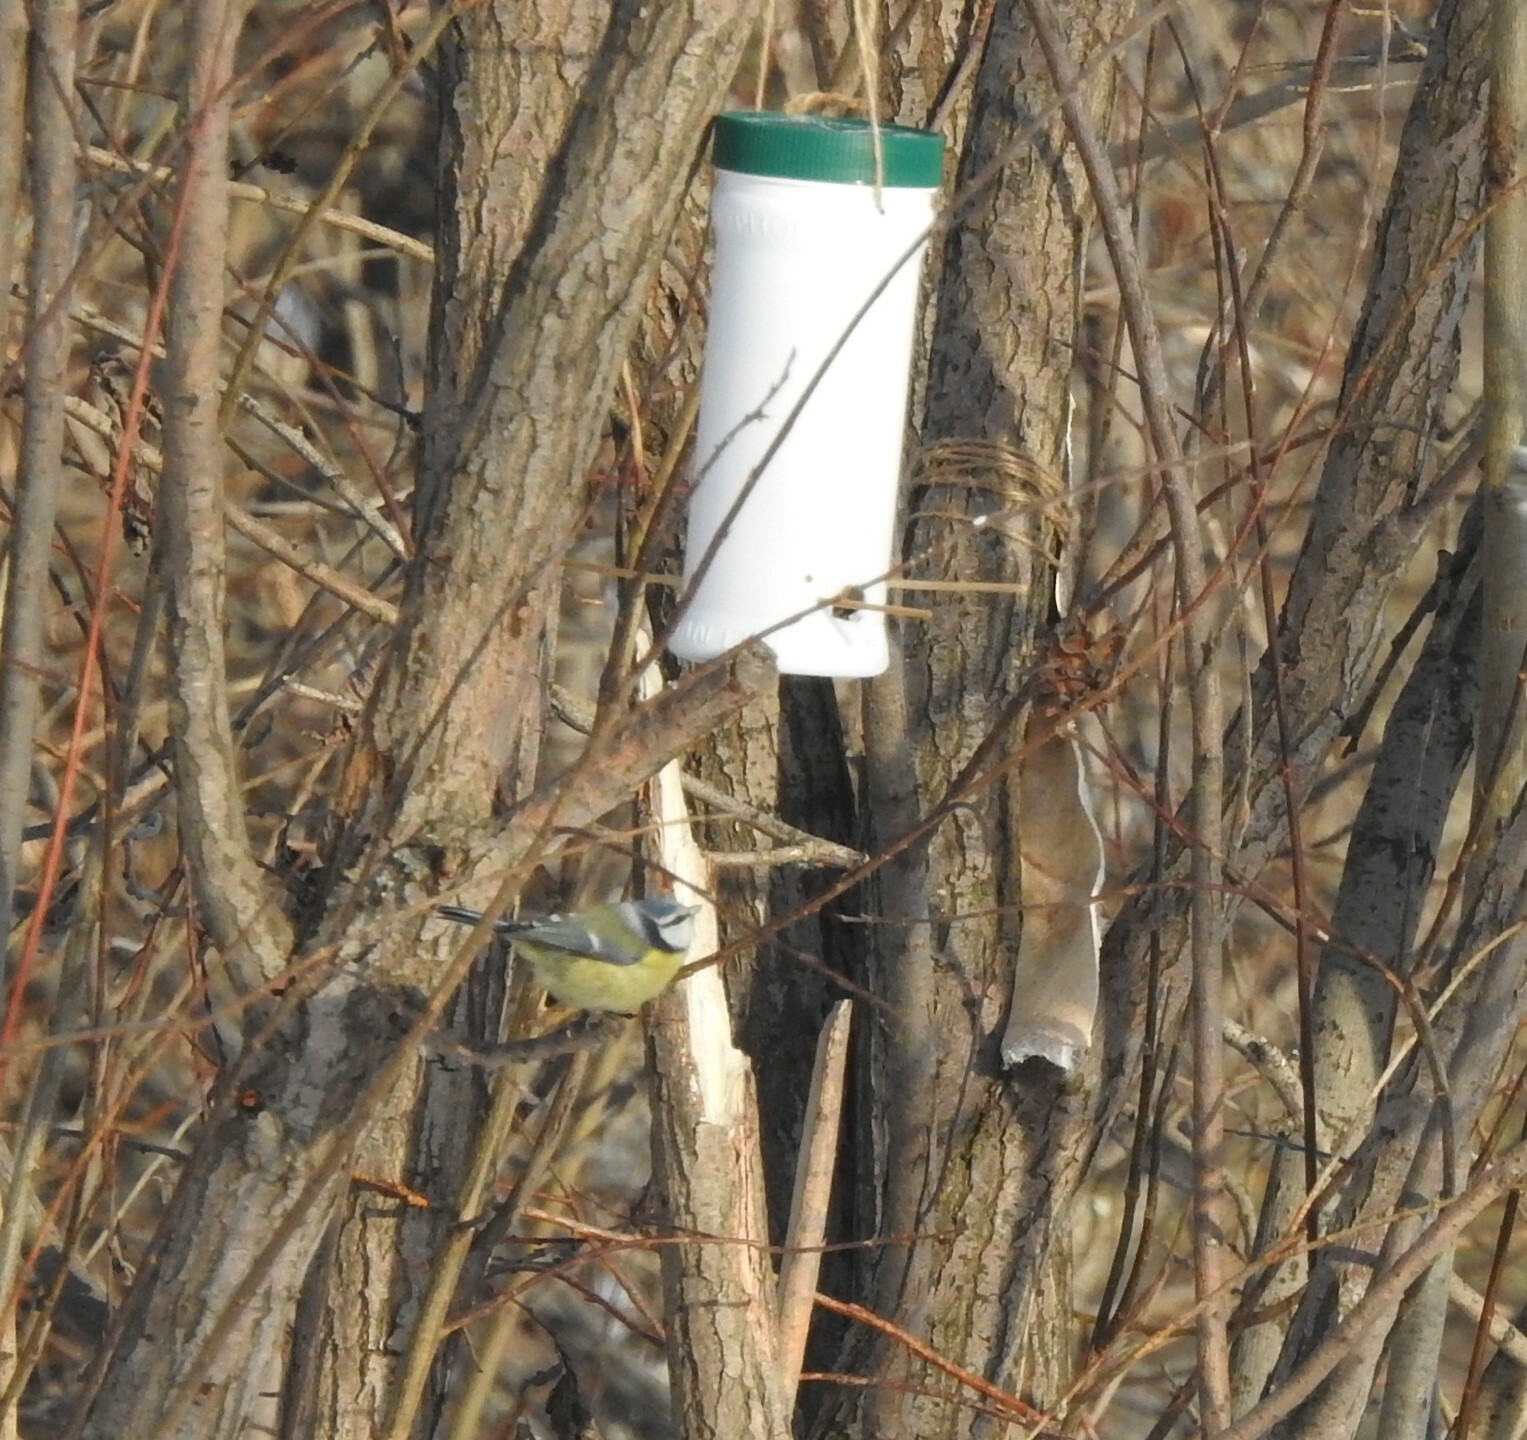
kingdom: Animalia
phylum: Chordata
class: Aves
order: Passeriformes
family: Paridae
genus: Cyanistes
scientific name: Cyanistes caeruleus
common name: Eurasian blue tit
